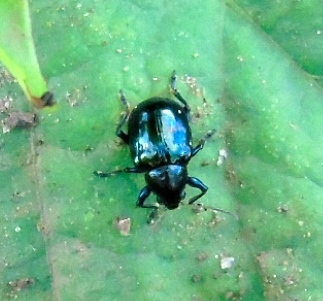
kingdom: Animalia
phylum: Arthropoda
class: Insecta
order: Coleoptera
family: Chrysomelidae
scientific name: Chrysomelidae
